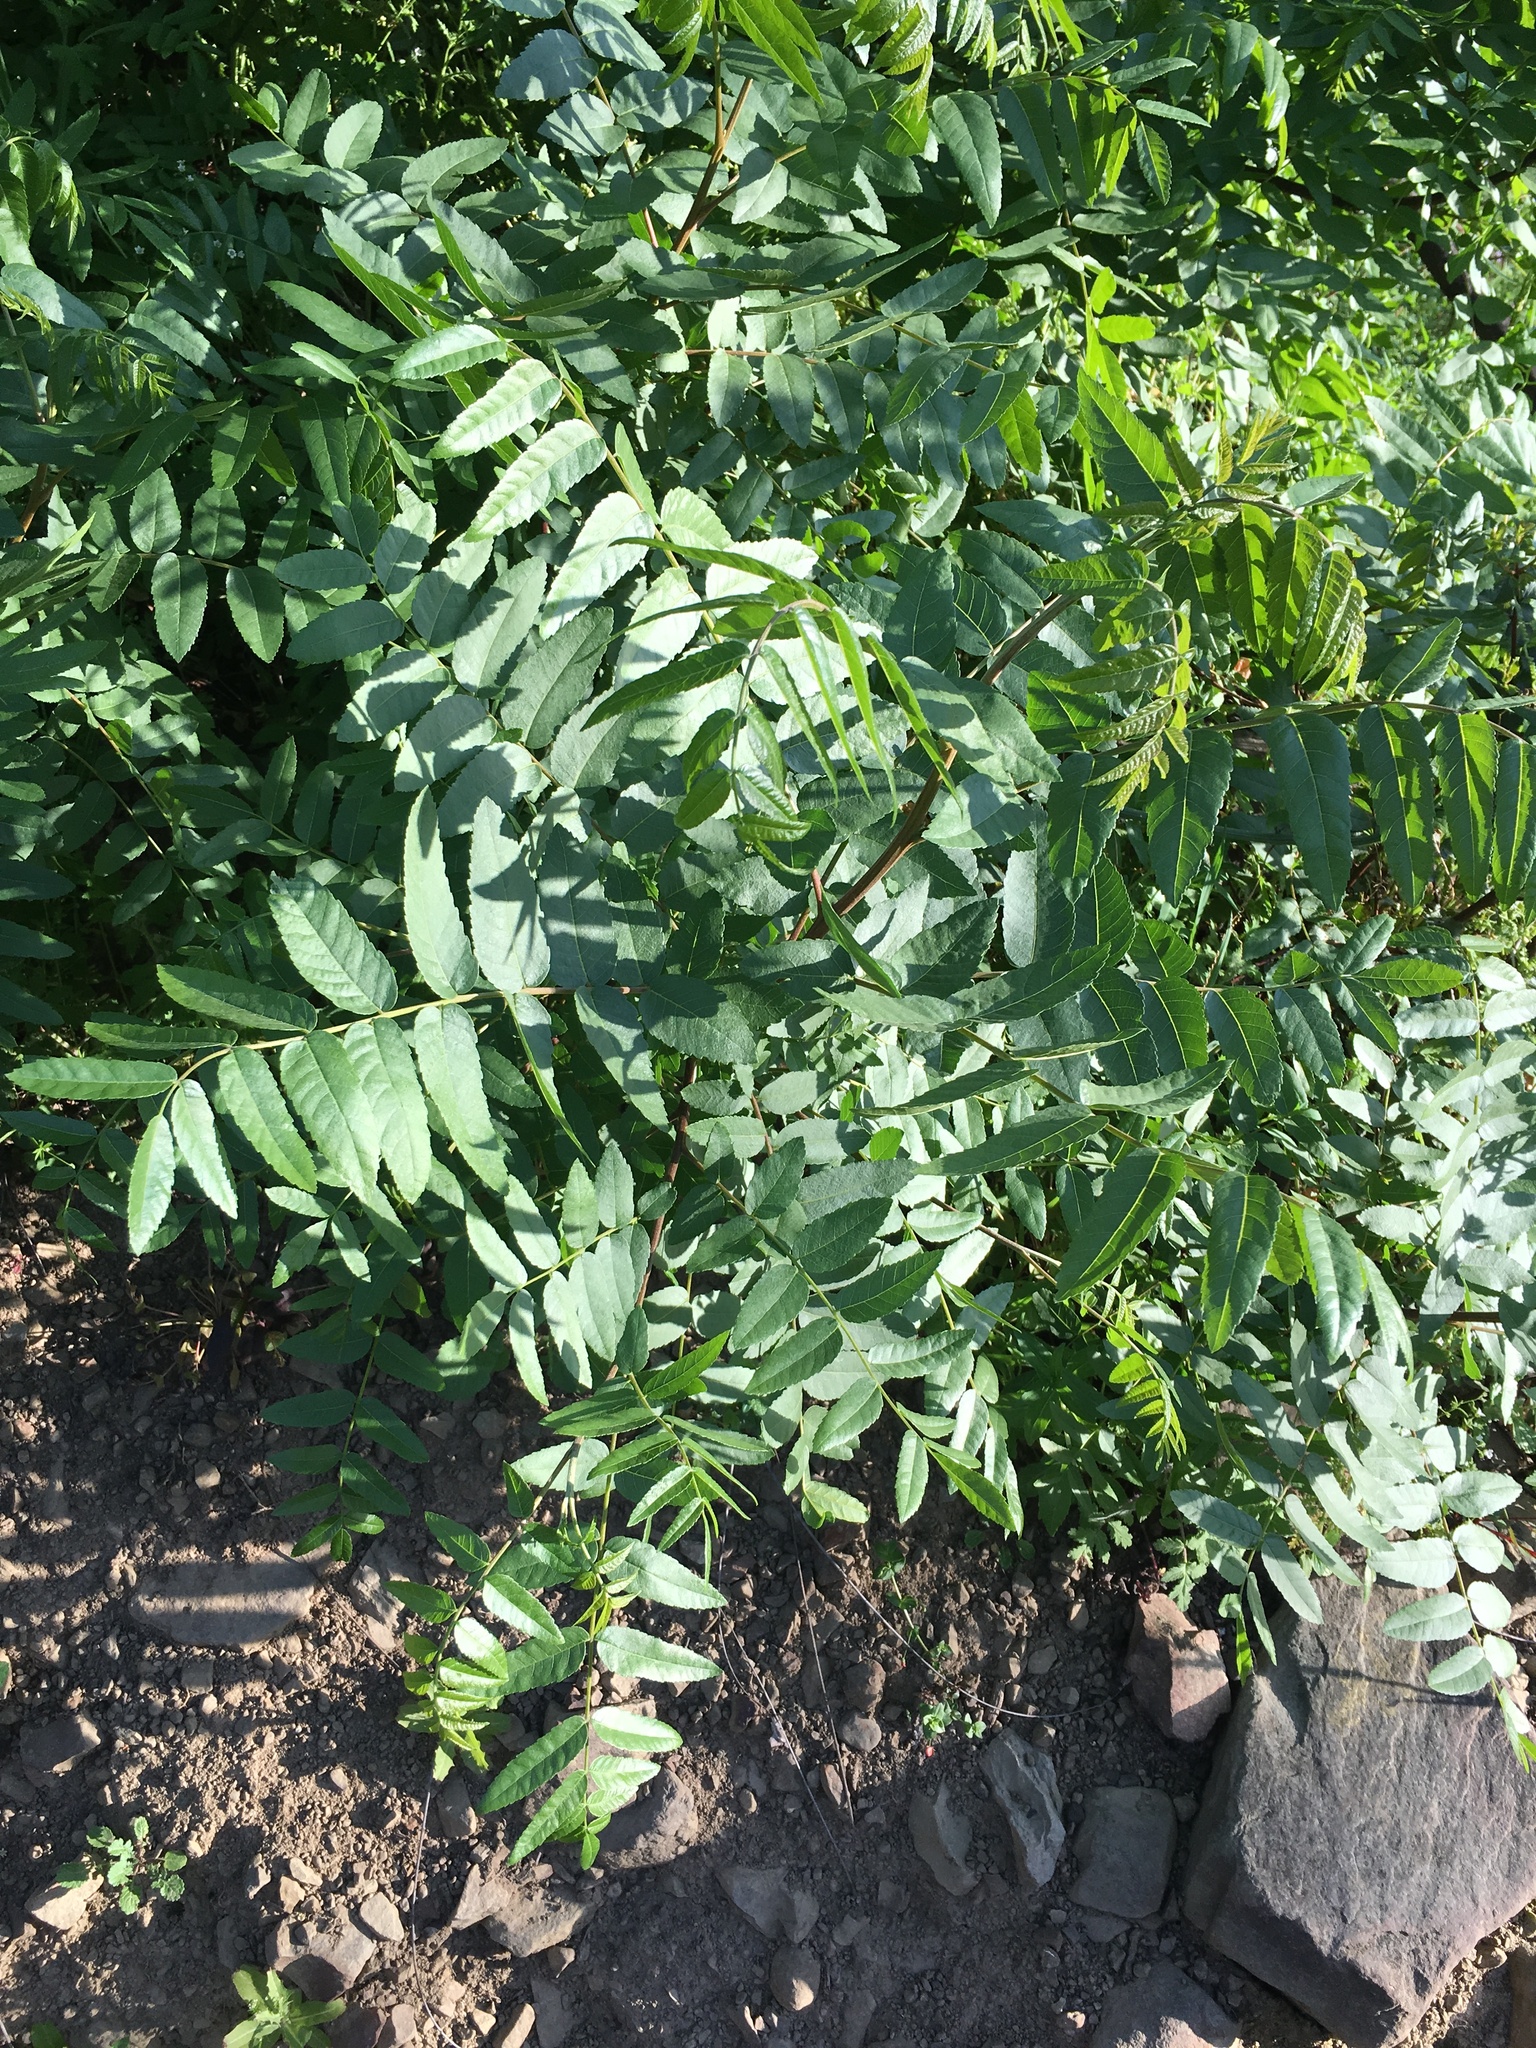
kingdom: Plantae
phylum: Tracheophyta
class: Magnoliopsida
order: Fagales
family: Juglandaceae
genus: Juglans
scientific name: Juglans californica
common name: Southern california black walnut
